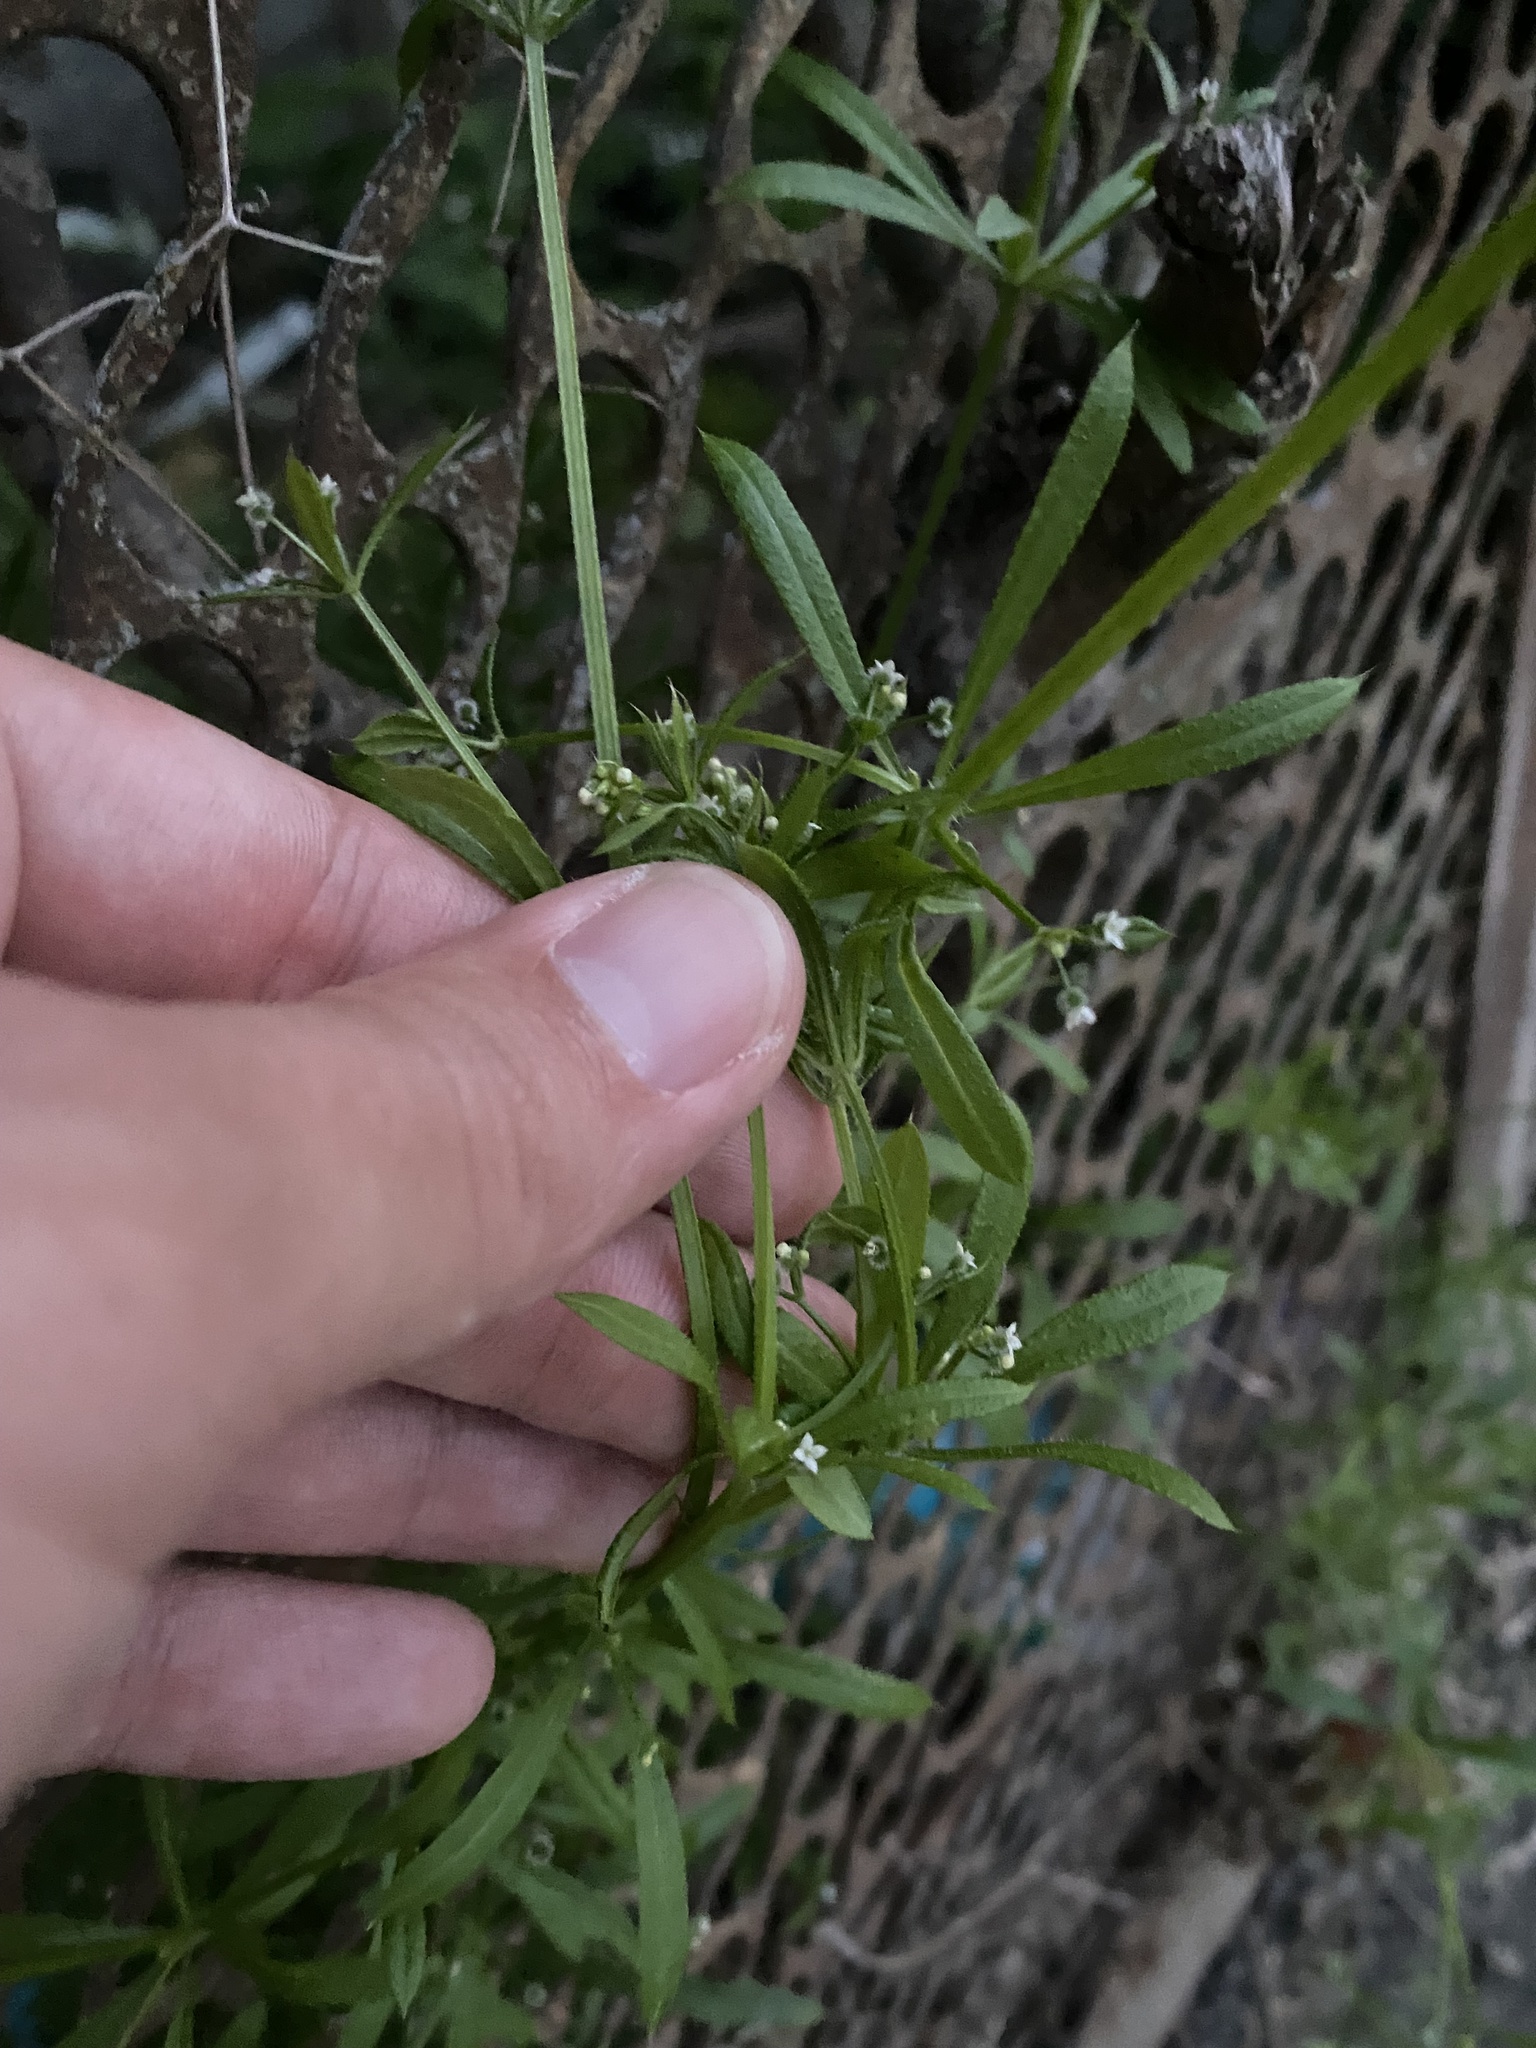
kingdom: Plantae
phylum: Tracheophyta
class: Magnoliopsida
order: Gentianales
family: Rubiaceae
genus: Galium
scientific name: Galium aparine
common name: Cleavers
